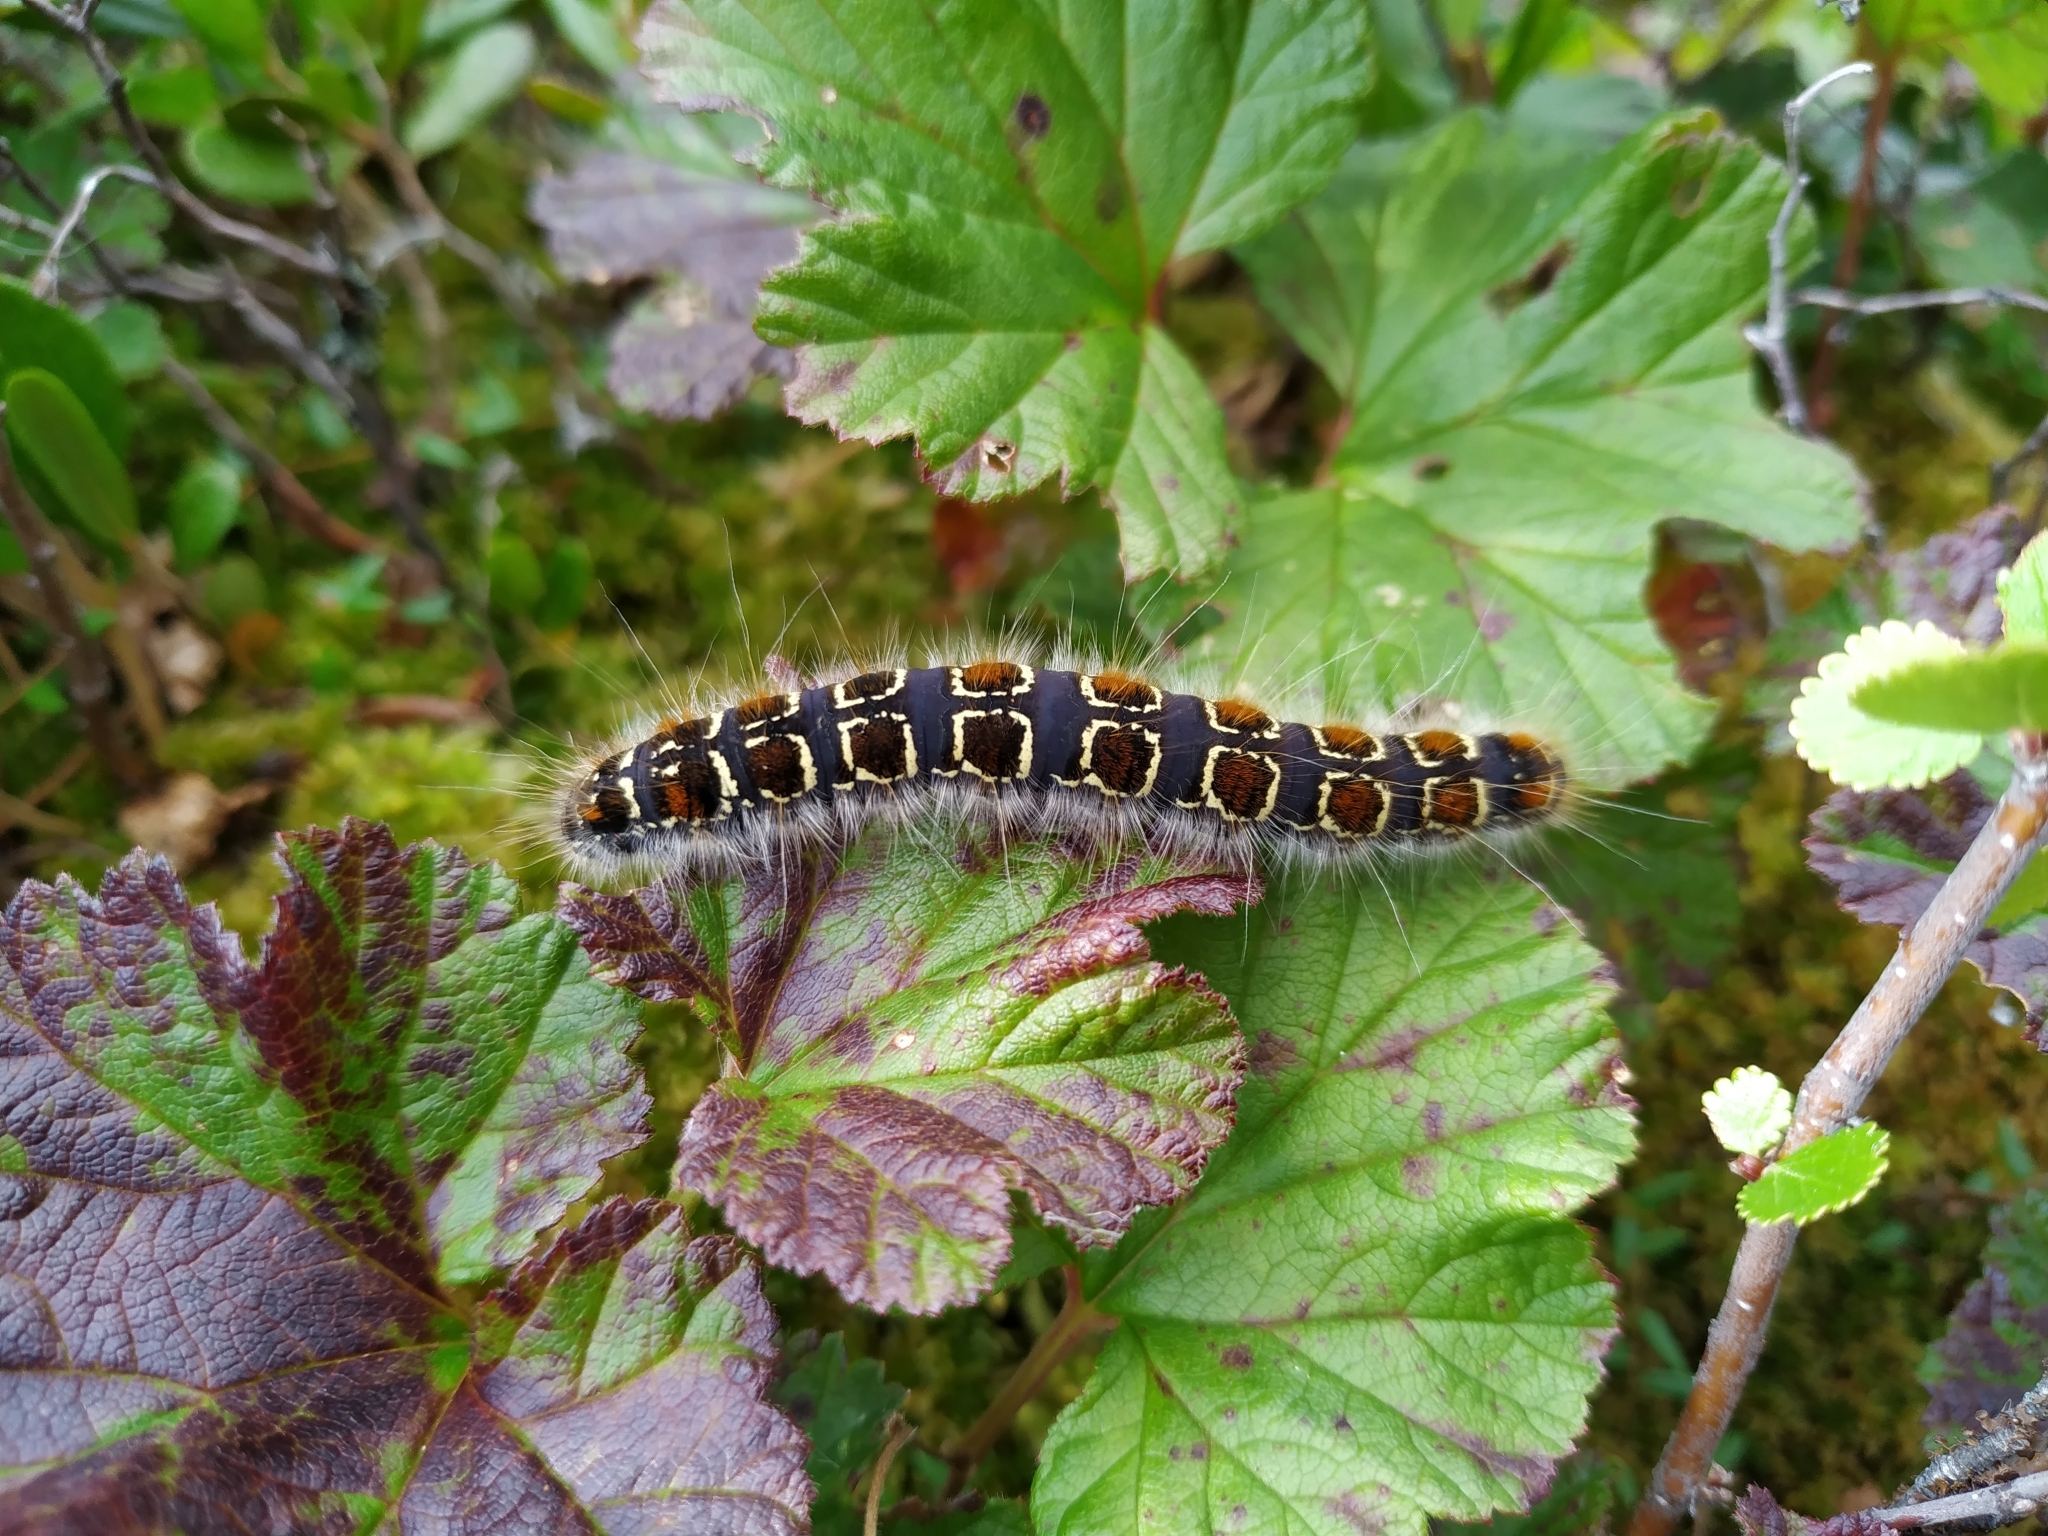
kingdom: Animalia
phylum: Arthropoda
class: Insecta
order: Lepidoptera
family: Lasiocampidae
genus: Eriogaster
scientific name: Eriogaster lanestris
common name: Small eggar
